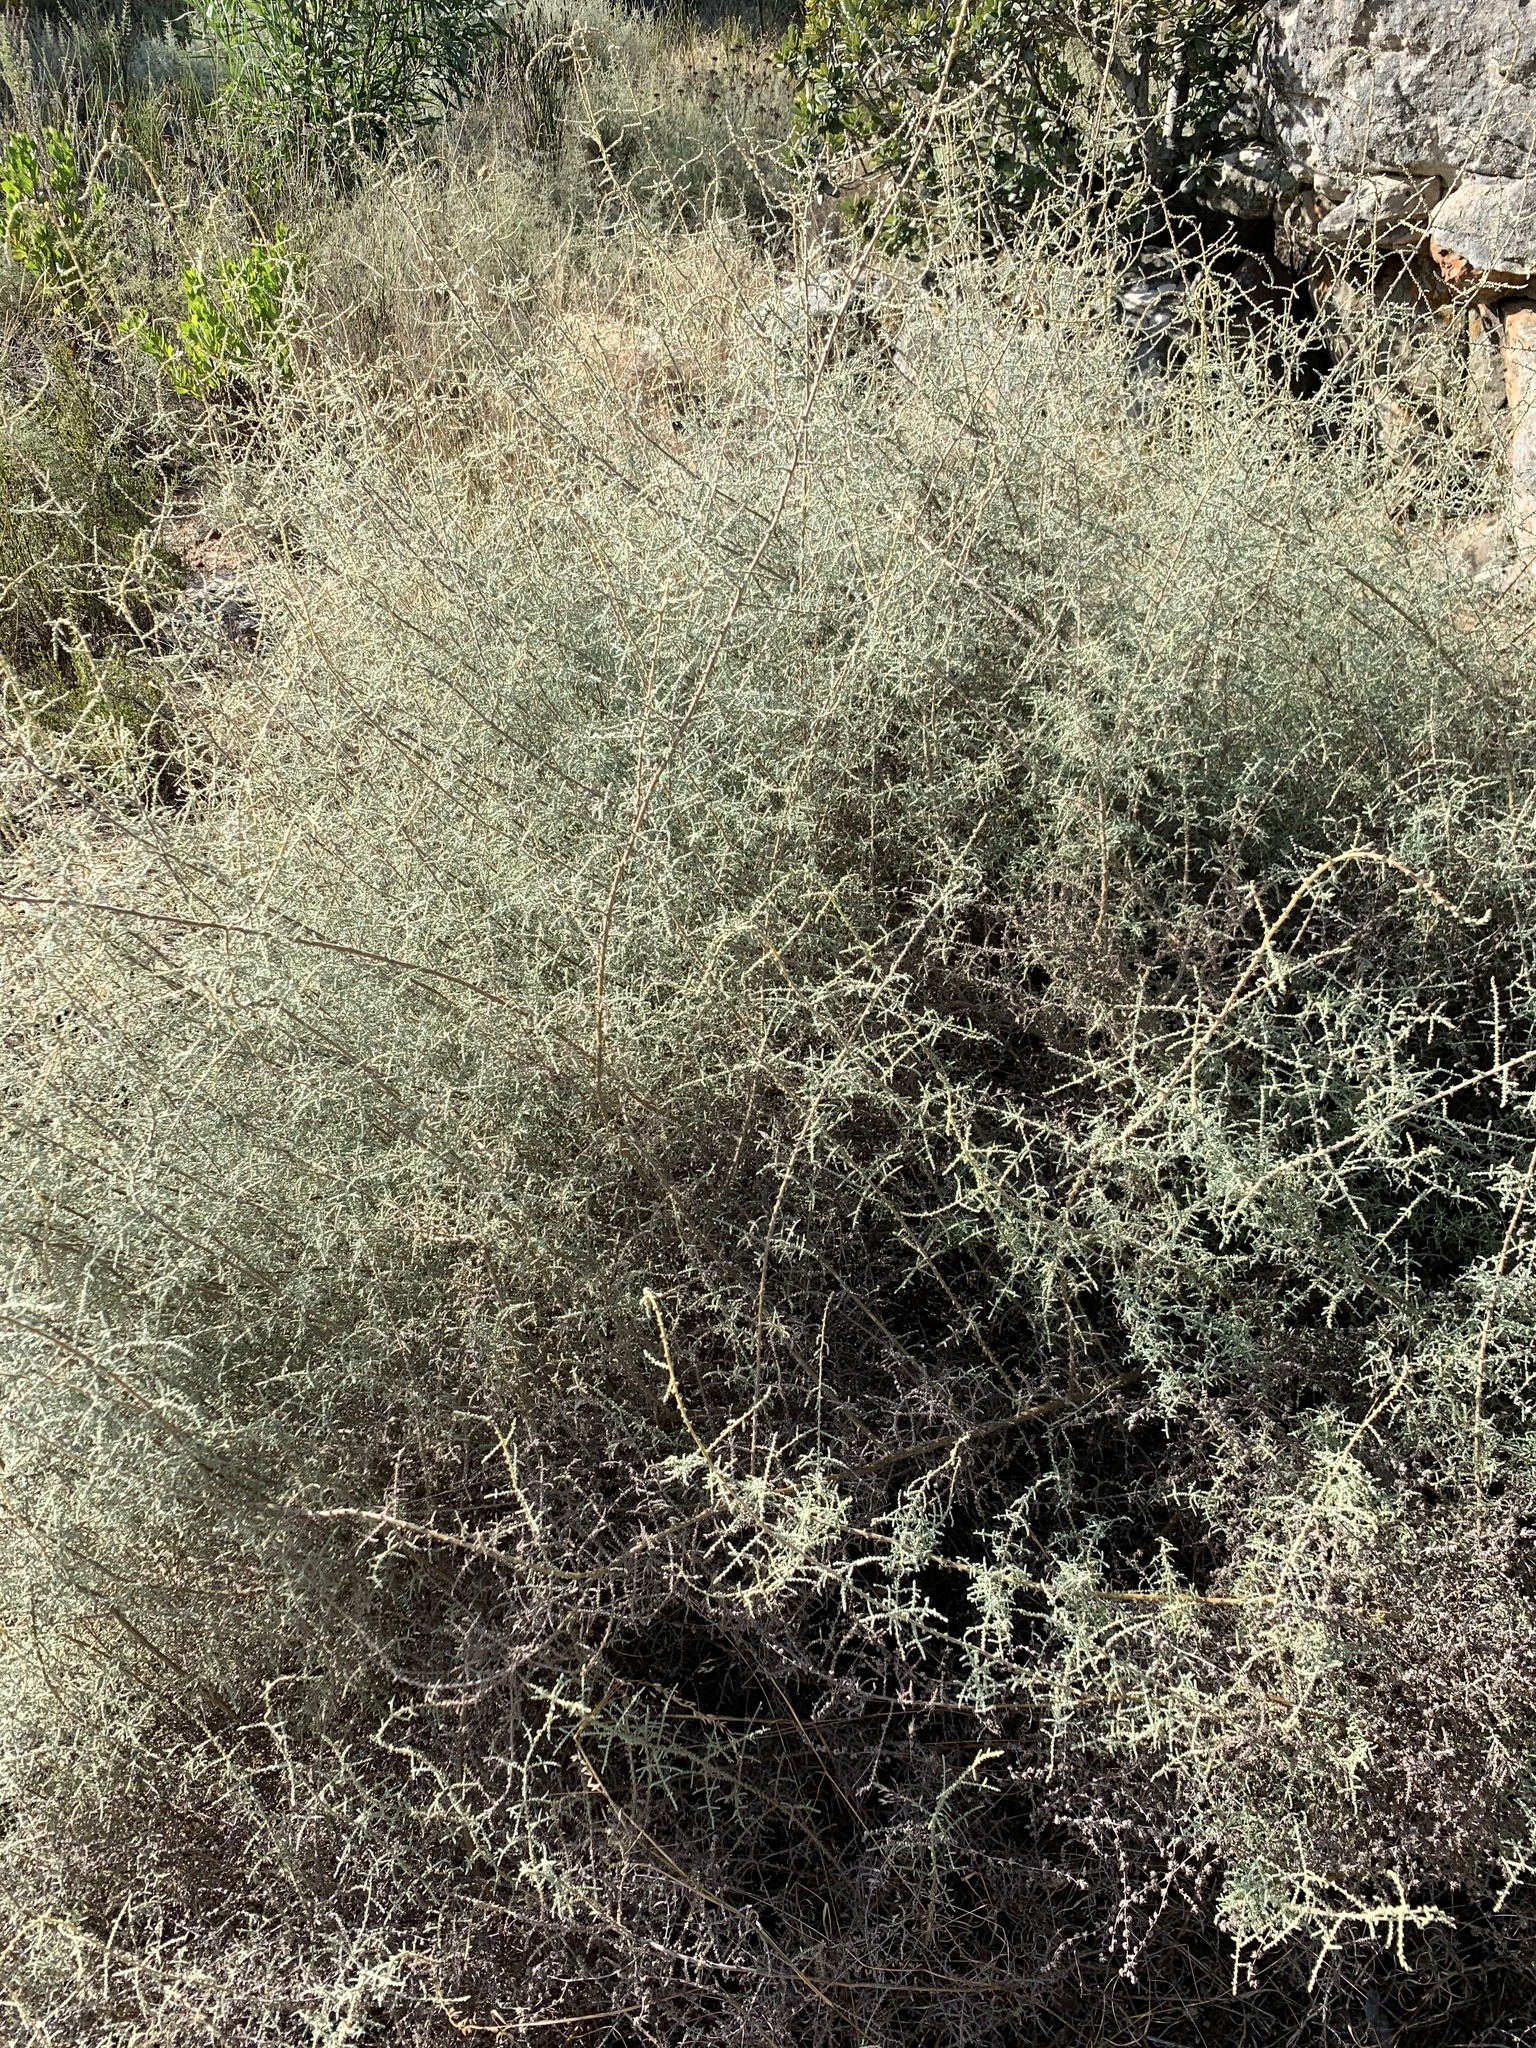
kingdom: Plantae
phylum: Tracheophyta
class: Magnoliopsida
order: Asterales
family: Asteraceae
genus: Seriphium
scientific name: Seriphium plumosum
